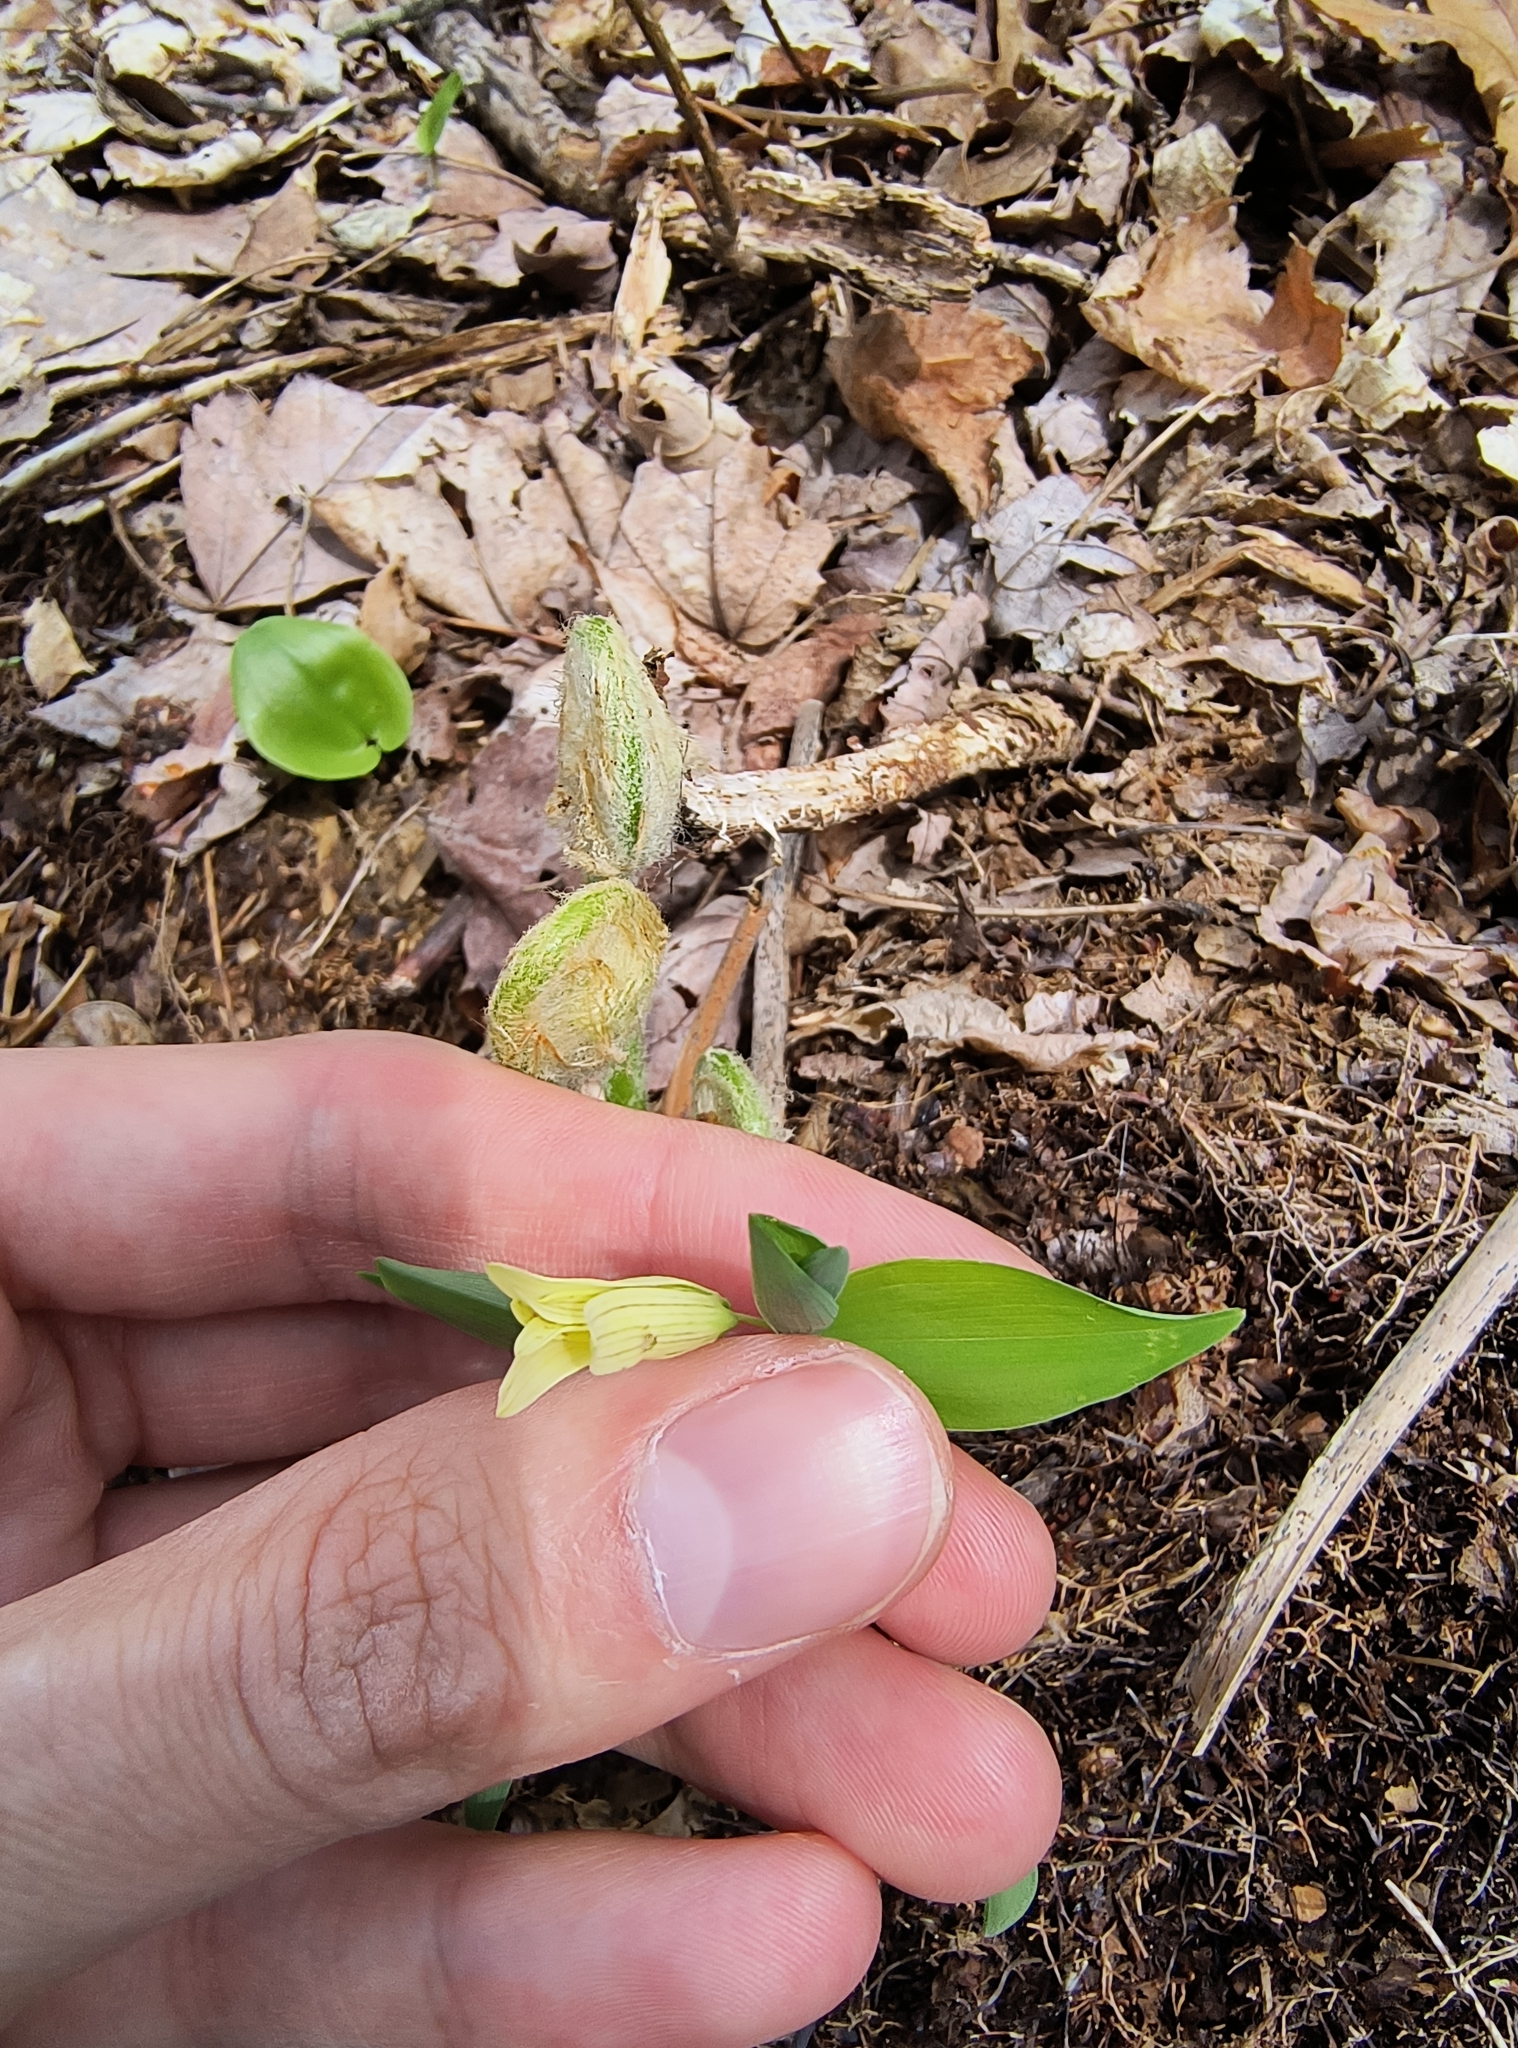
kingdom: Plantae
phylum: Tracheophyta
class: Liliopsida
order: Liliales
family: Colchicaceae
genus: Uvularia
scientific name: Uvularia sessilifolia
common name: Straw-lily
